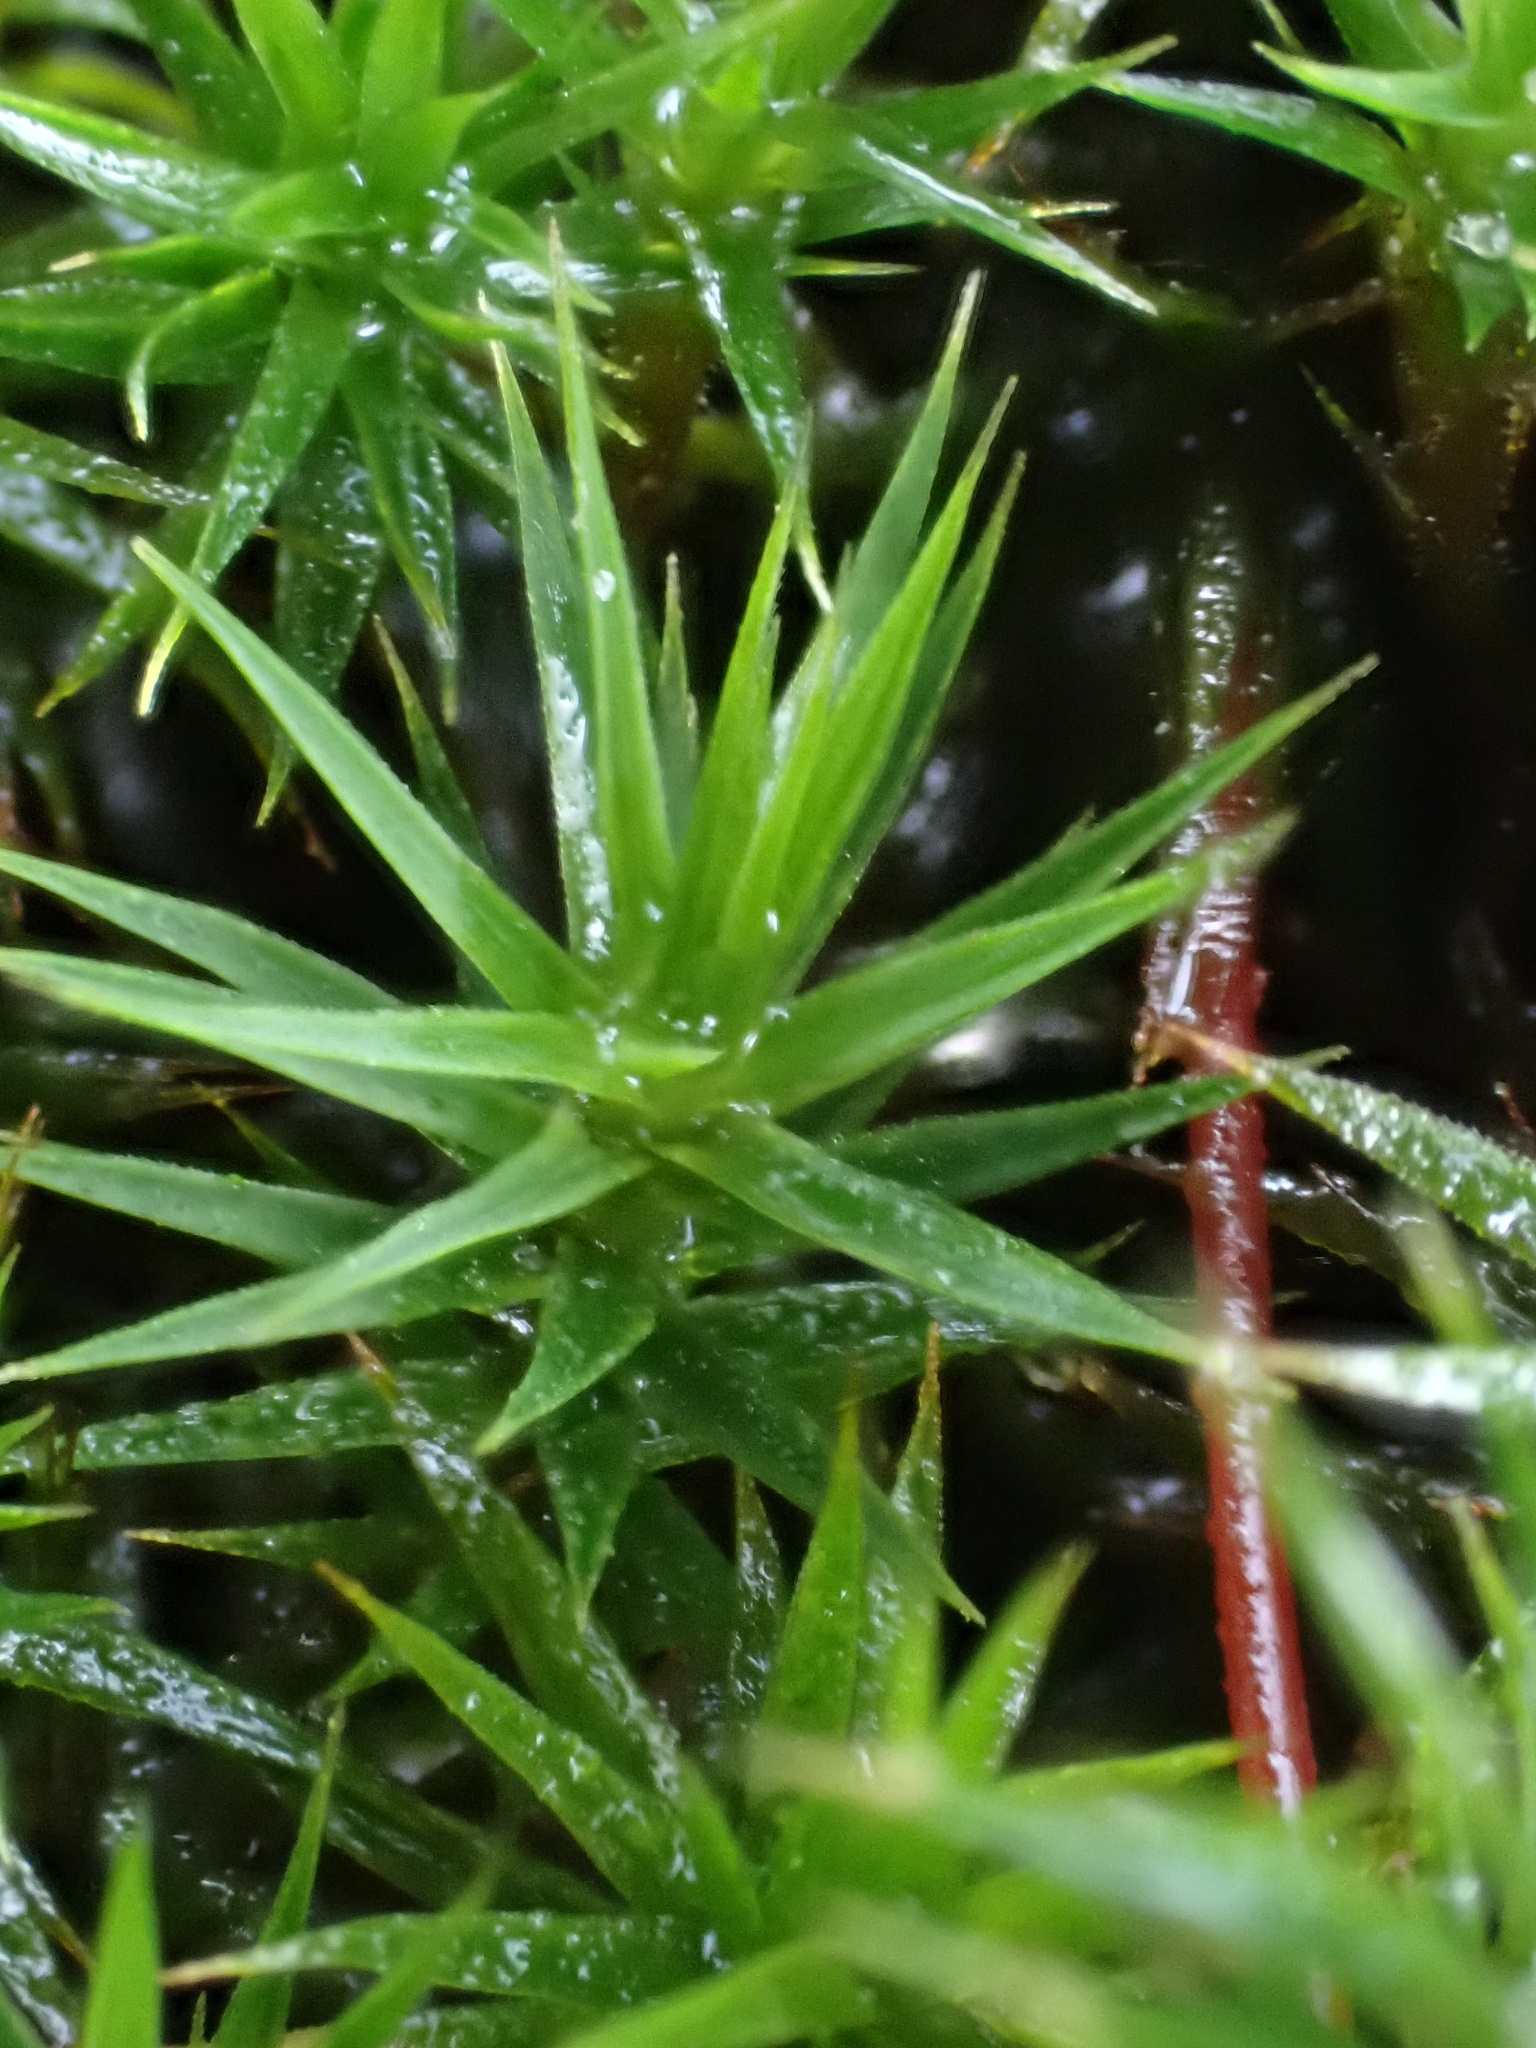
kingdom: Plantae
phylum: Bryophyta
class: Polytrichopsida
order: Polytrichales
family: Polytrichaceae
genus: Polytrichum
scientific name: Polytrichum formosum
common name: Bank haircap moss
